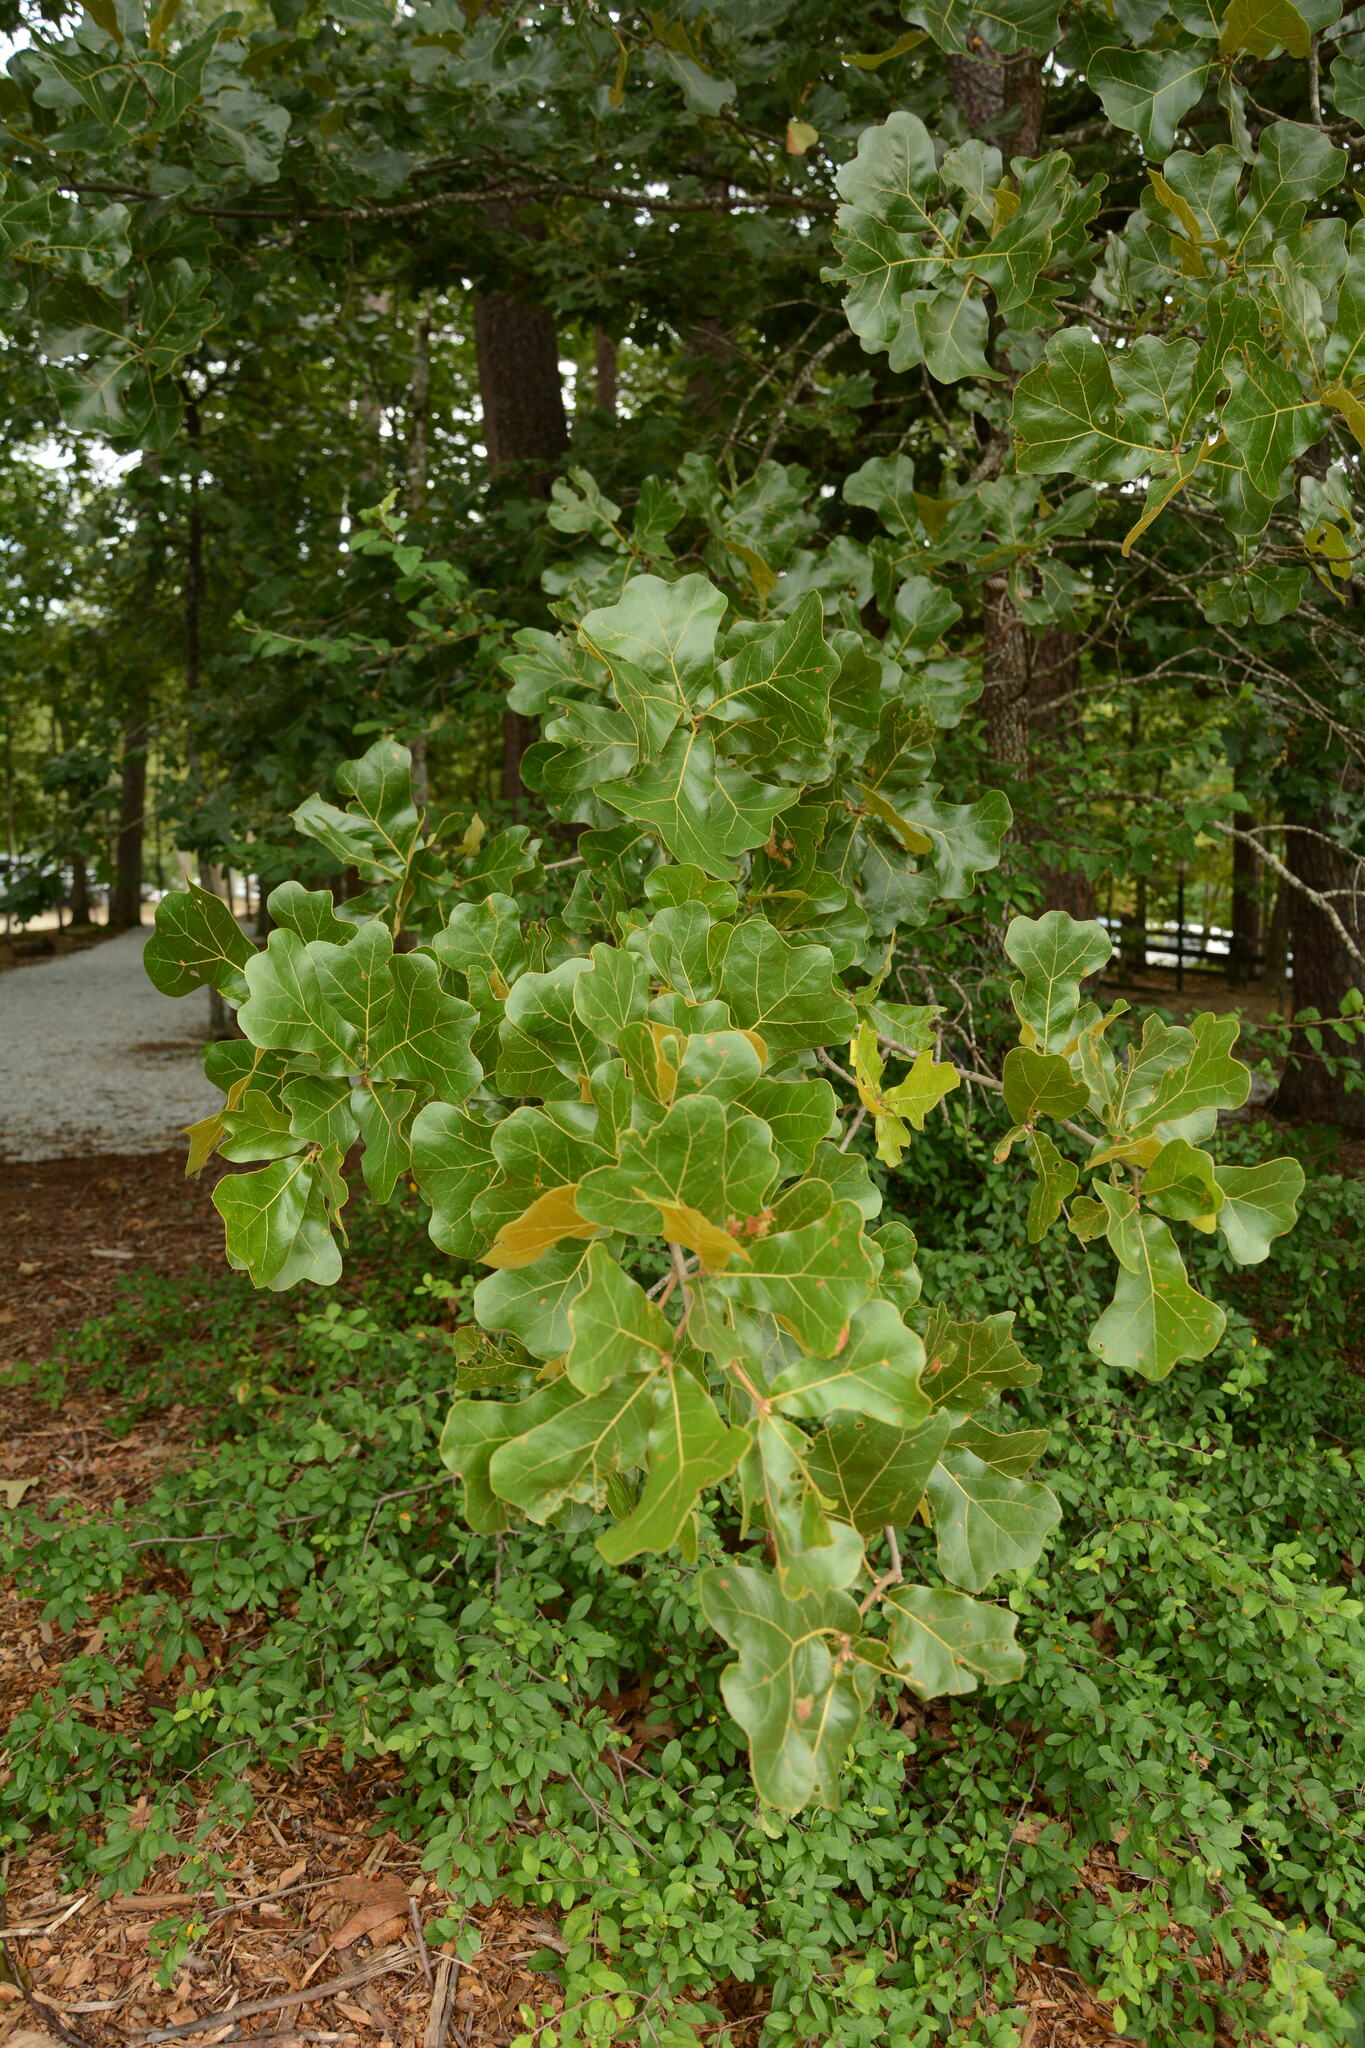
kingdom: Plantae
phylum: Tracheophyta
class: Magnoliopsida
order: Fagales
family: Fagaceae
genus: Quercus
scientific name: Quercus marilandica
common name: Blackjack oak
